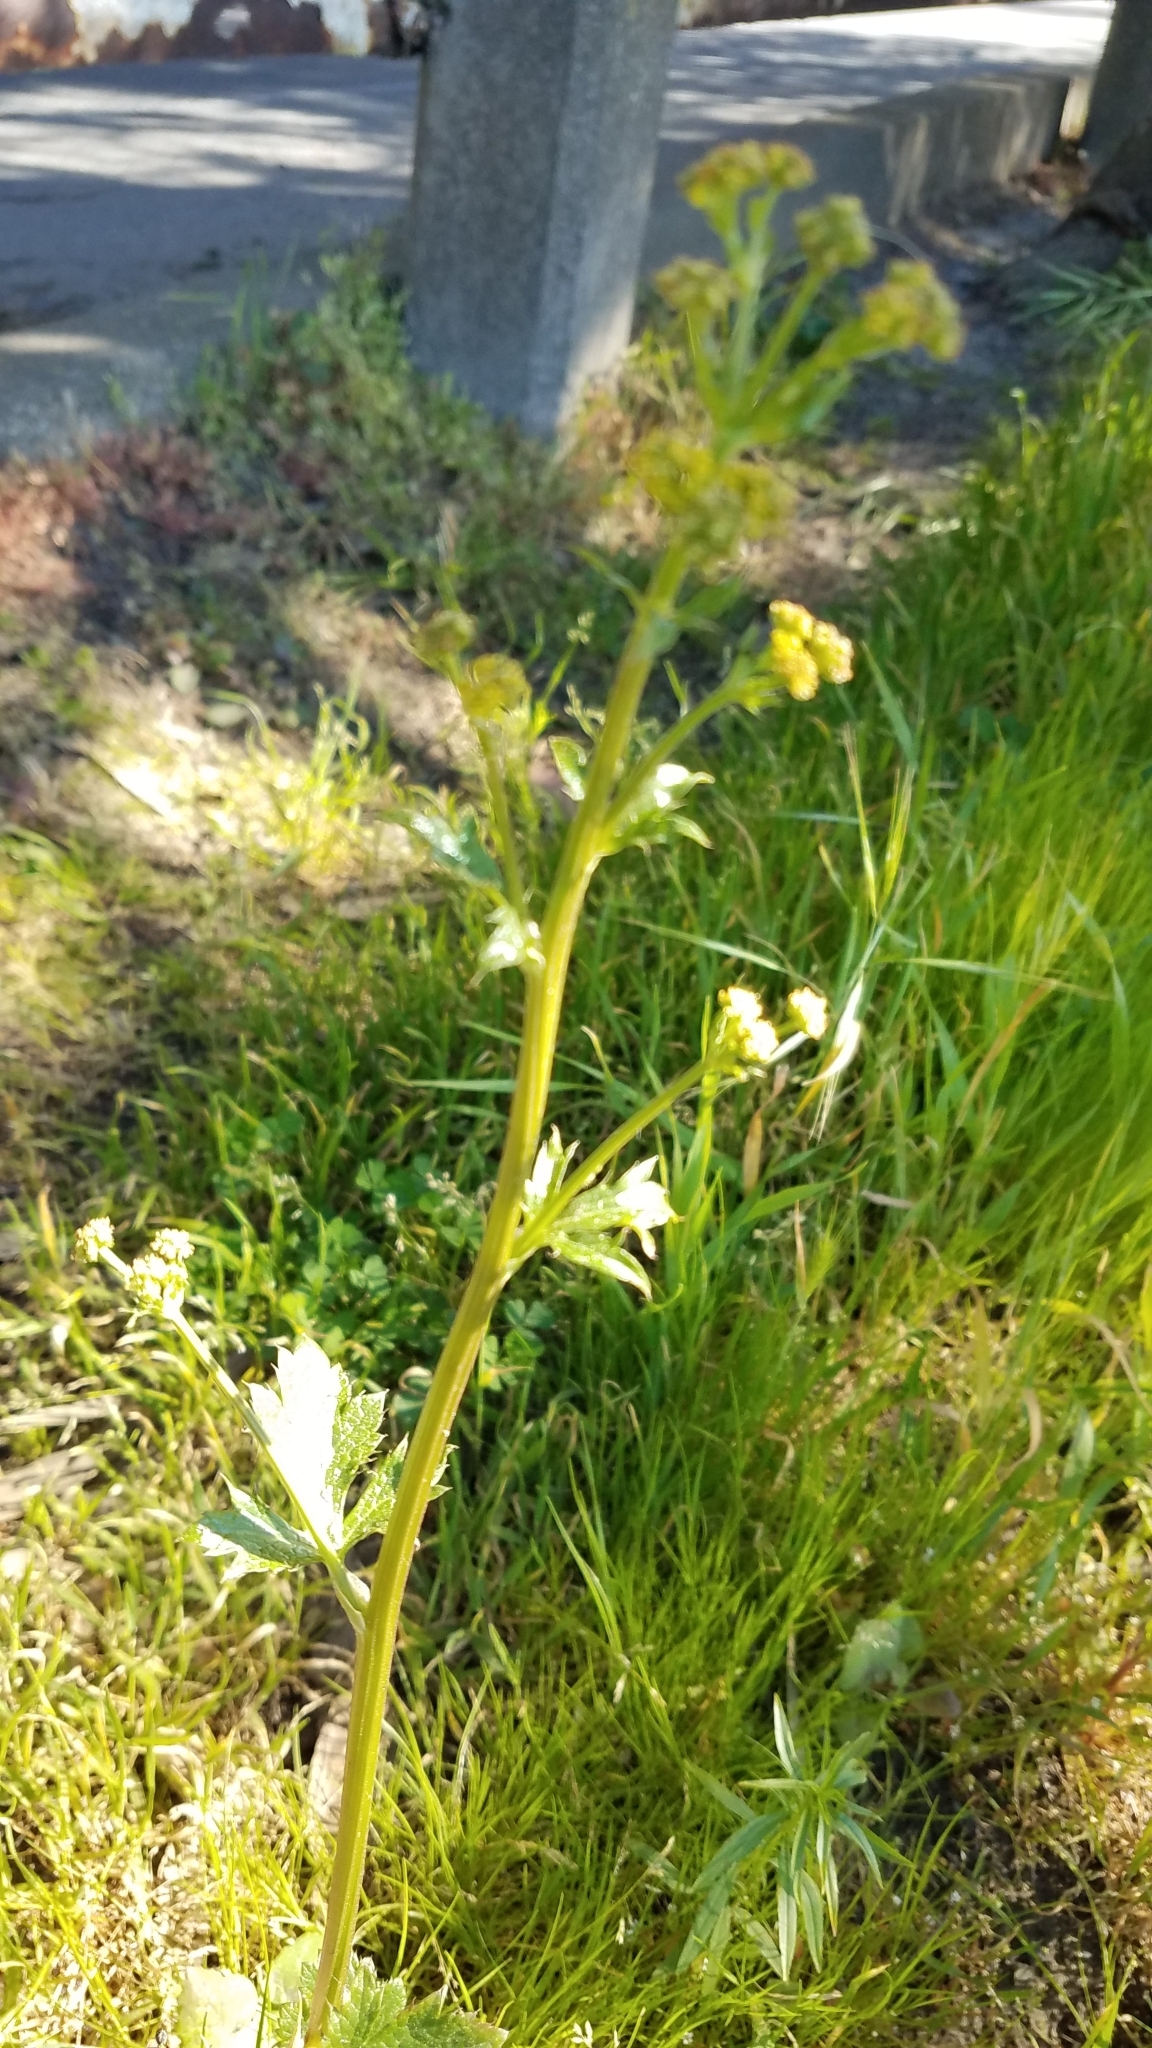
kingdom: Plantae
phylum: Tracheophyta
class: Magnoliopsida
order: Apiales
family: Apiaceae
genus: Sanicula
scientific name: Sanicula crassicaulis
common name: Western snakeroot
